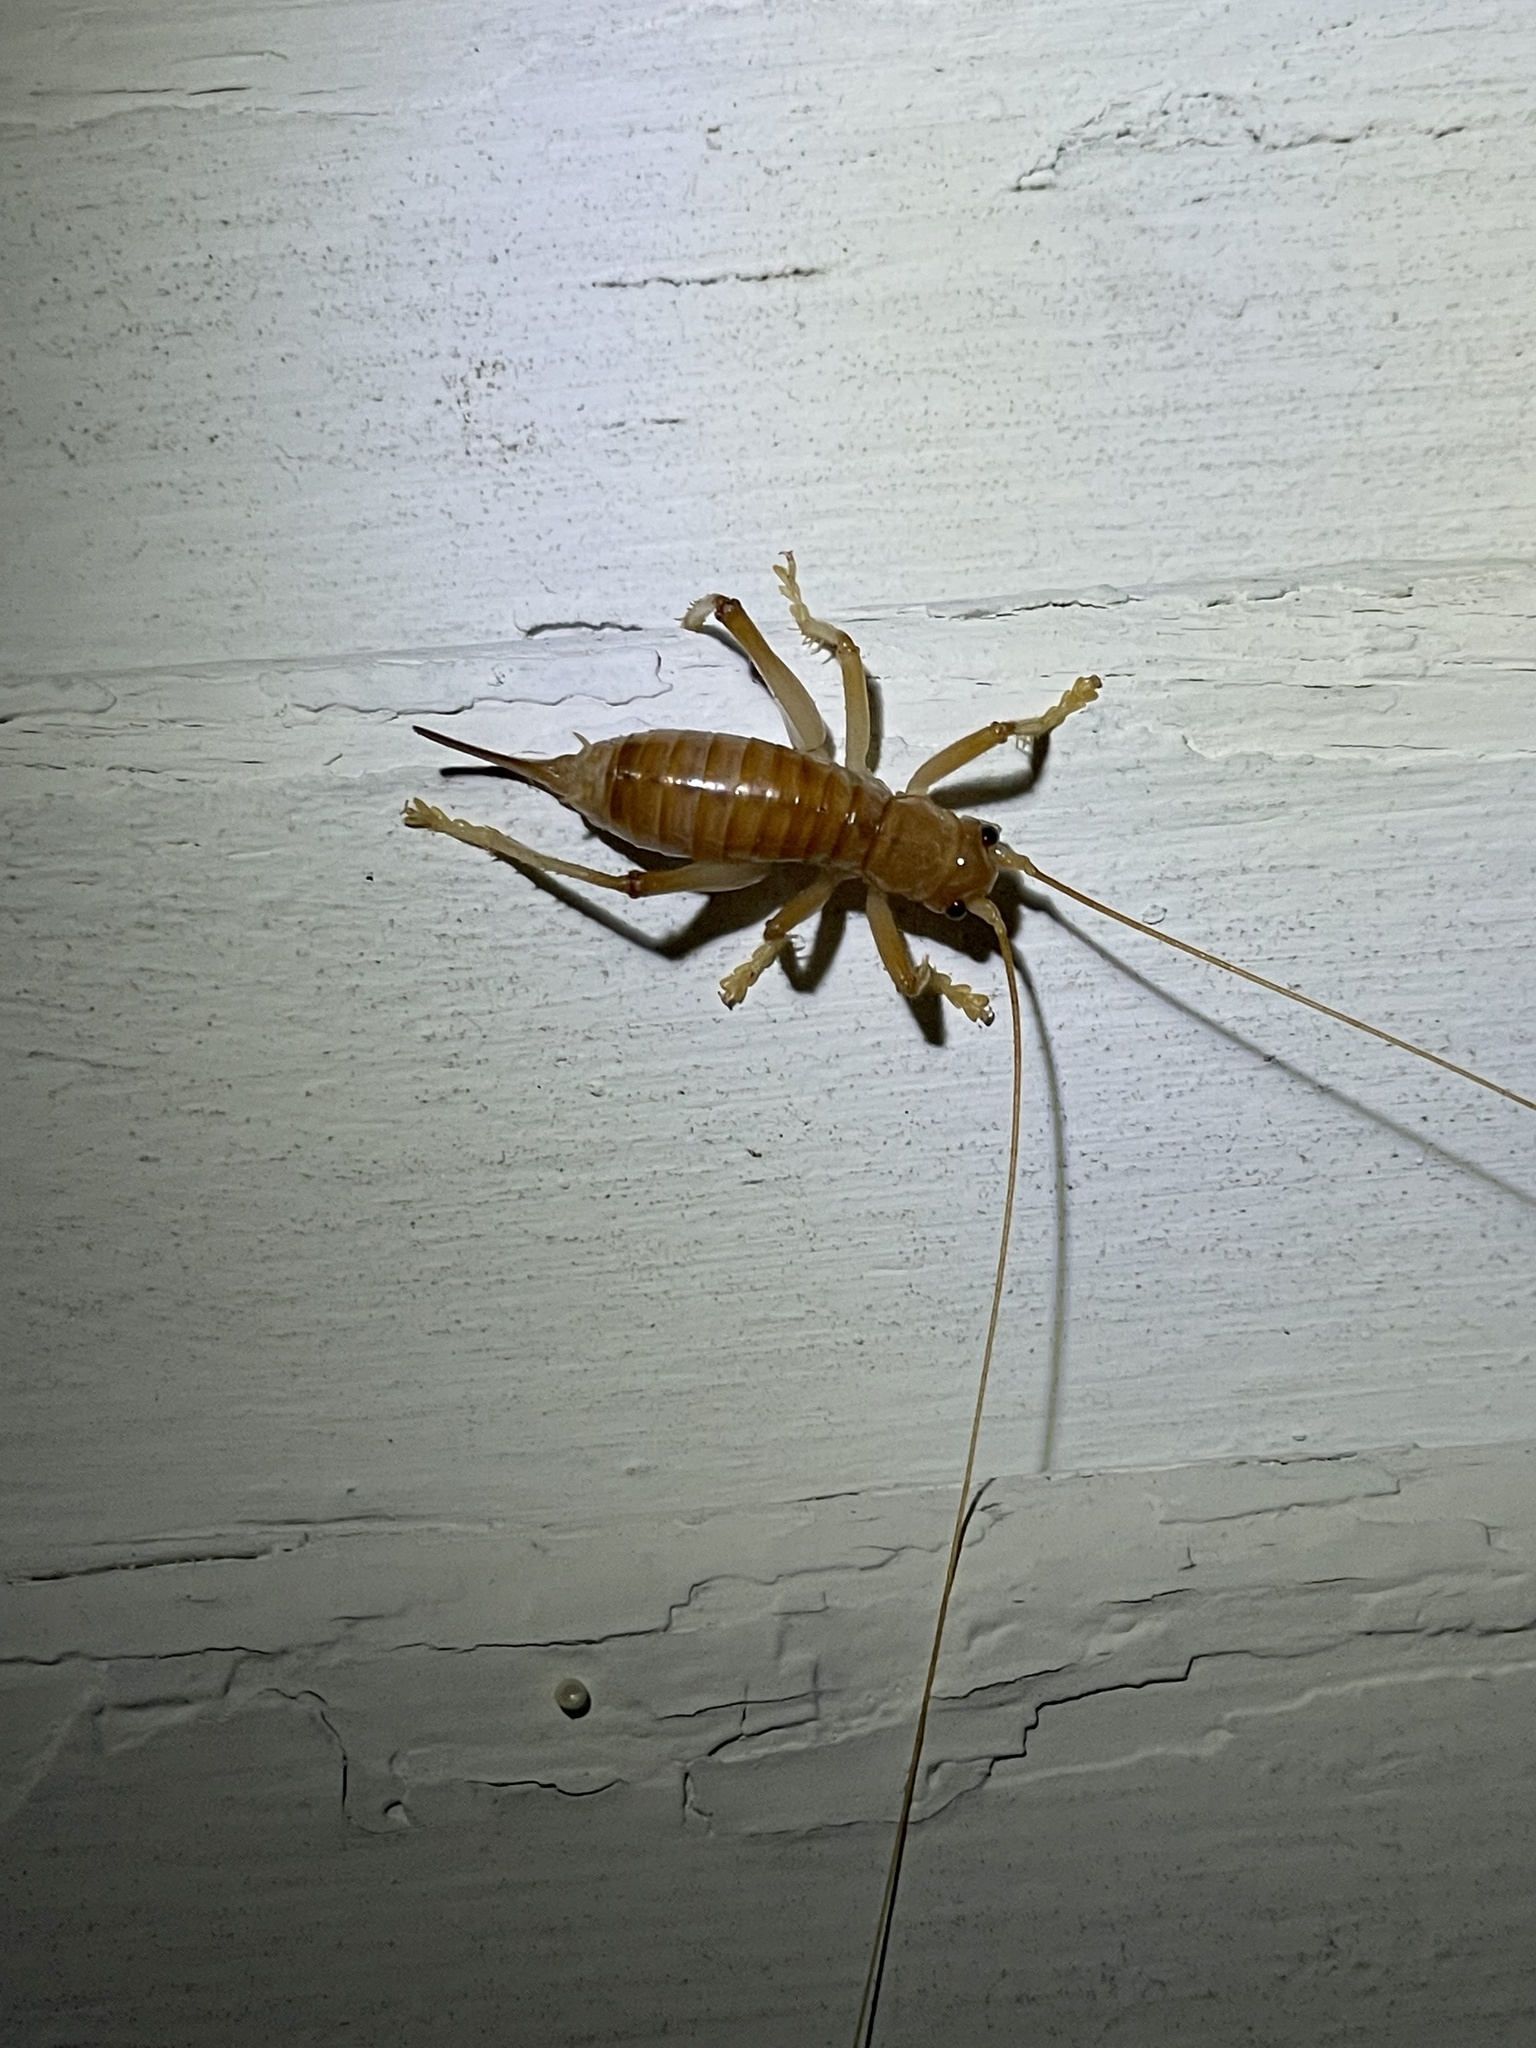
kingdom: Animalia
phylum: Arthropoda
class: Insecta
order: Orthoptera
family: Gryllacrididae
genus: Camptonotus
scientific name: Camptonotus carolinensis
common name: Carolina leaf-roller
